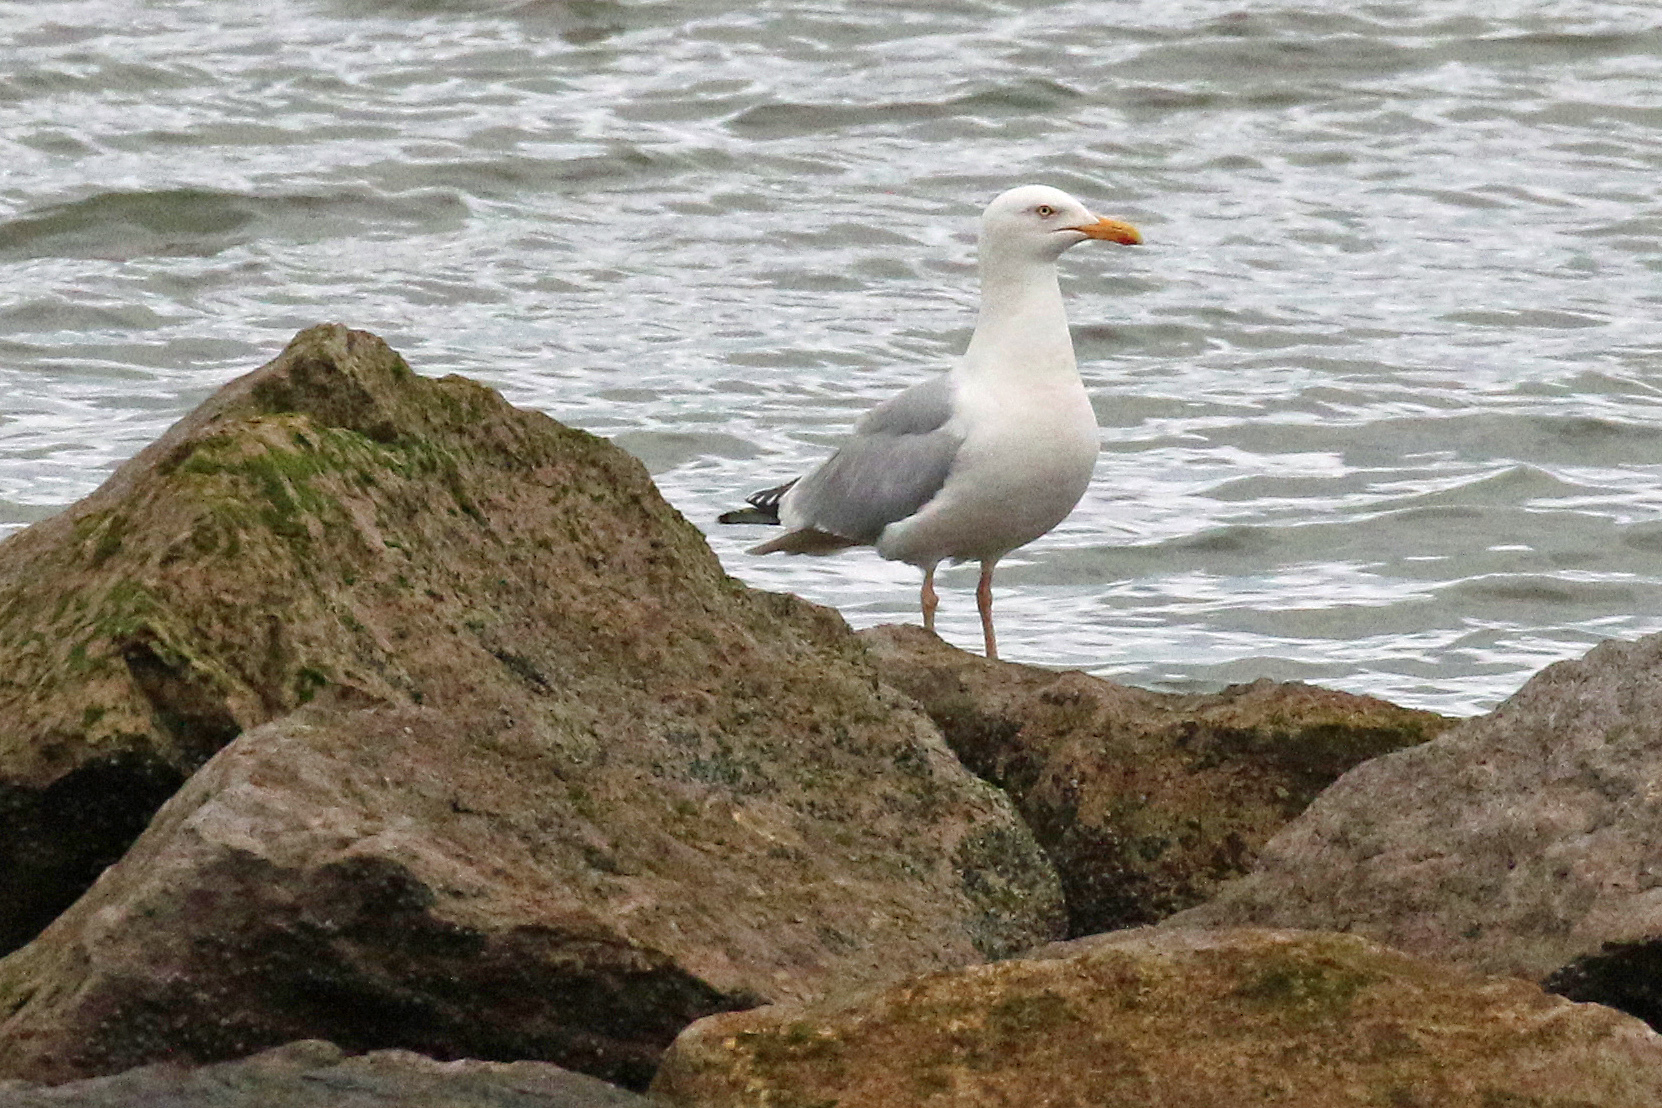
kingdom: Animalia
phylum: Chordata
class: Aves
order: Charadriiformes
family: Laridae
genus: Larus
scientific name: Larus argentatus
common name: Herring gull
